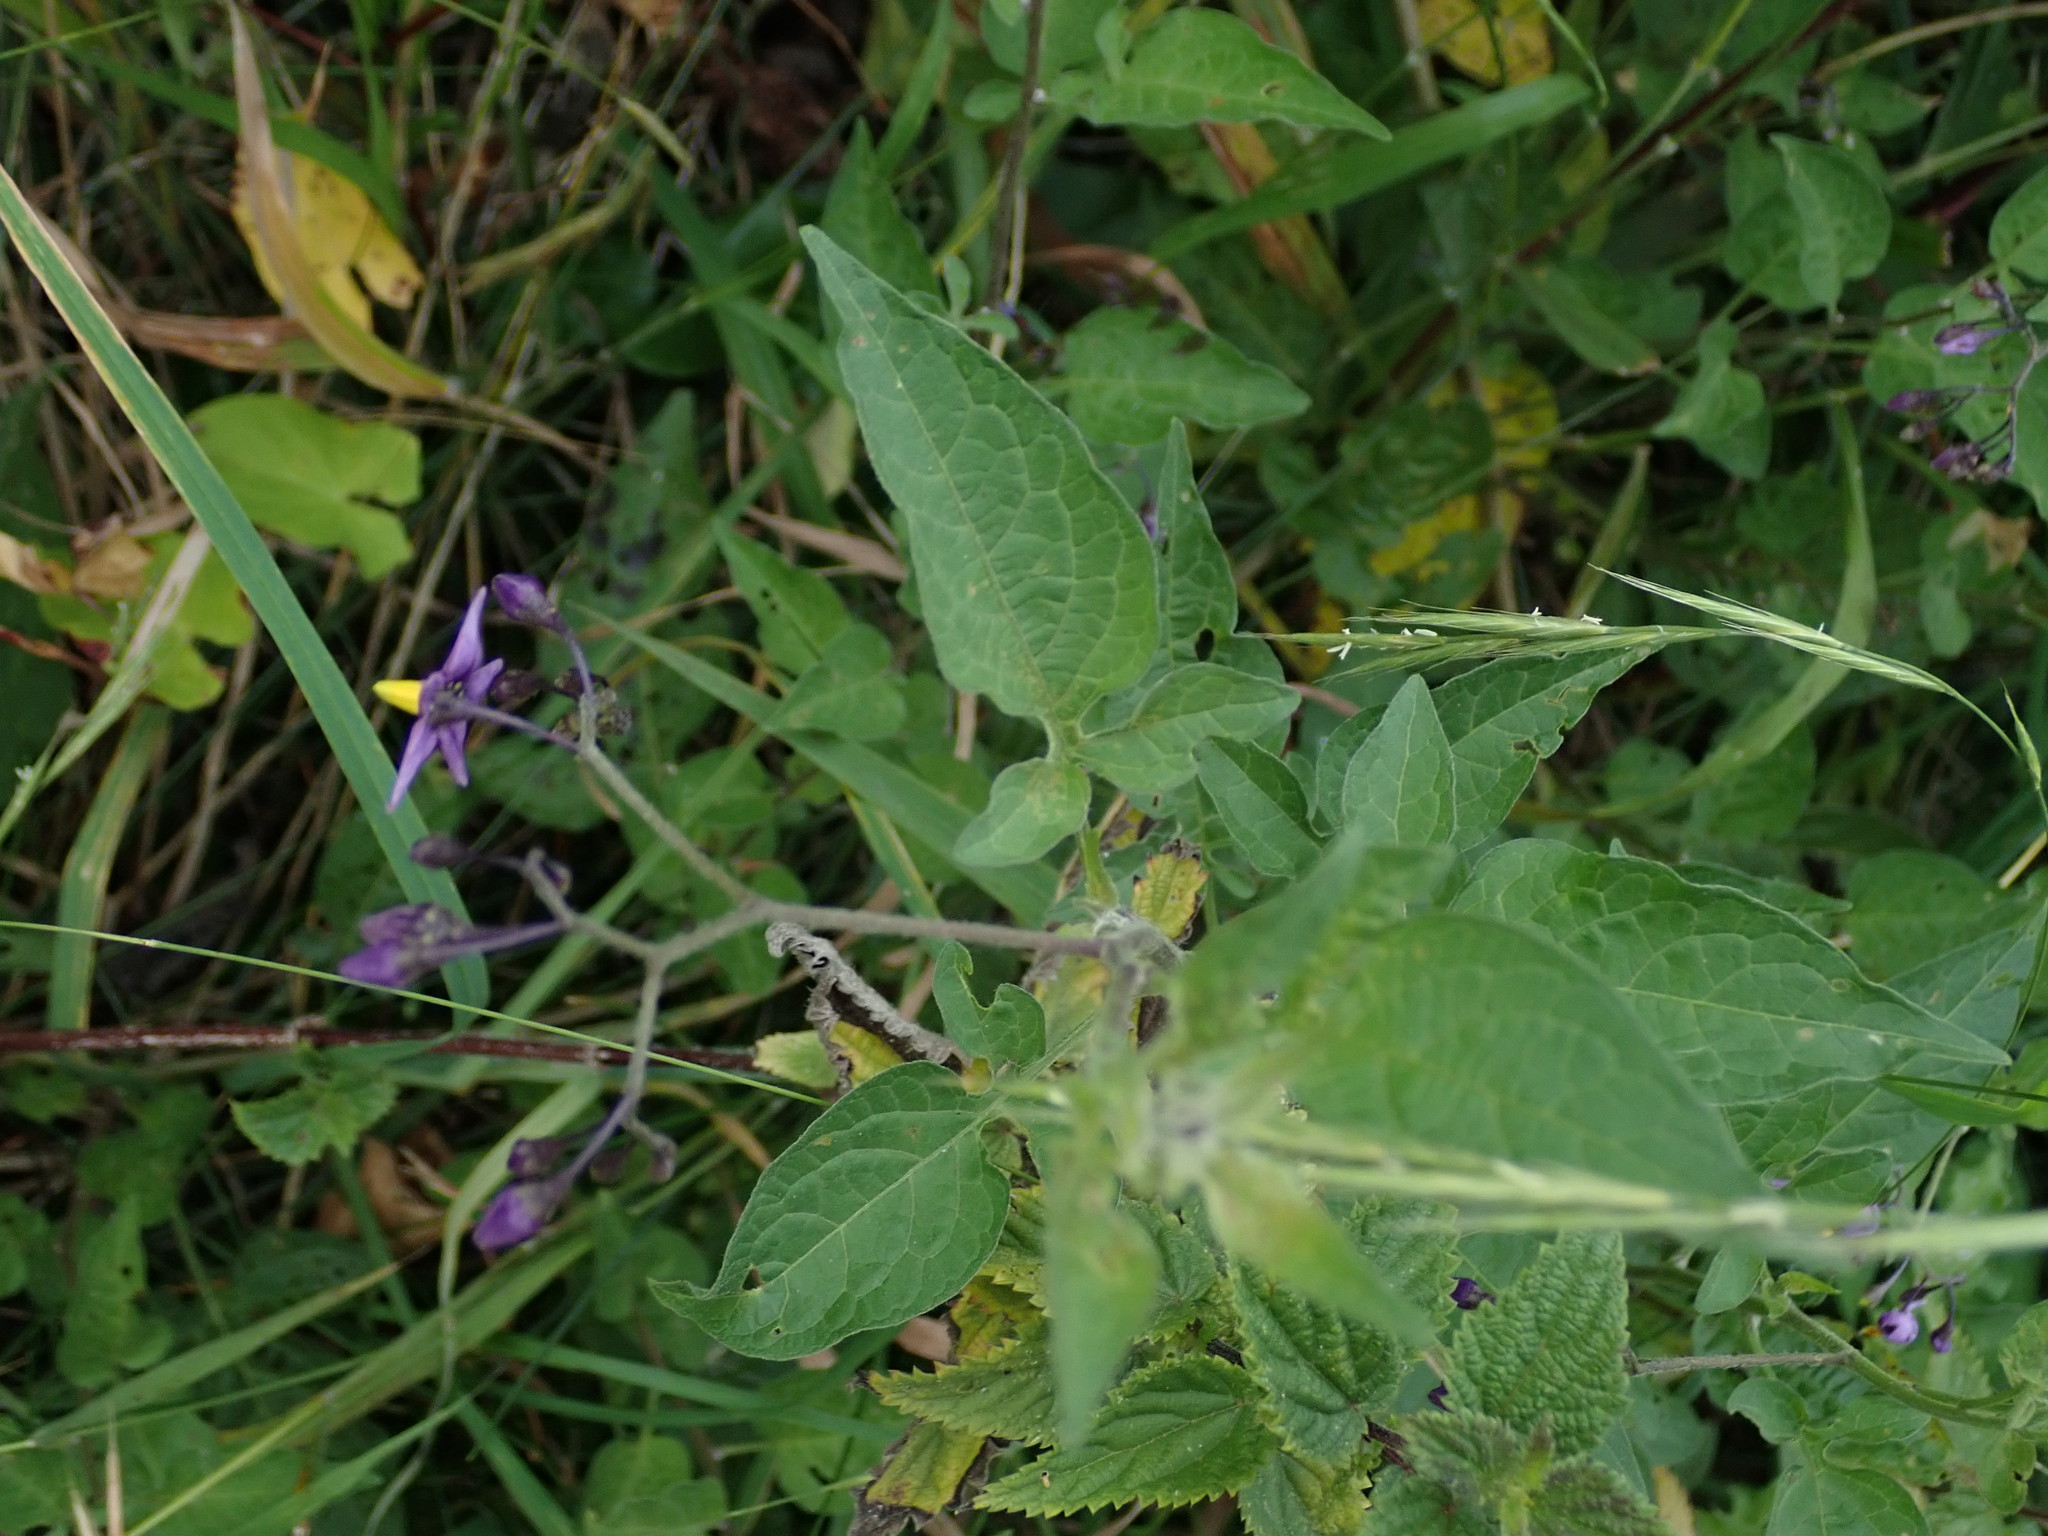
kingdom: Plantae
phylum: Tracheophyta
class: Magnoliopsida
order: Solanales
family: Solanaceae
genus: Solanum
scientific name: Solanum dulcamara
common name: Climbing nightshade
